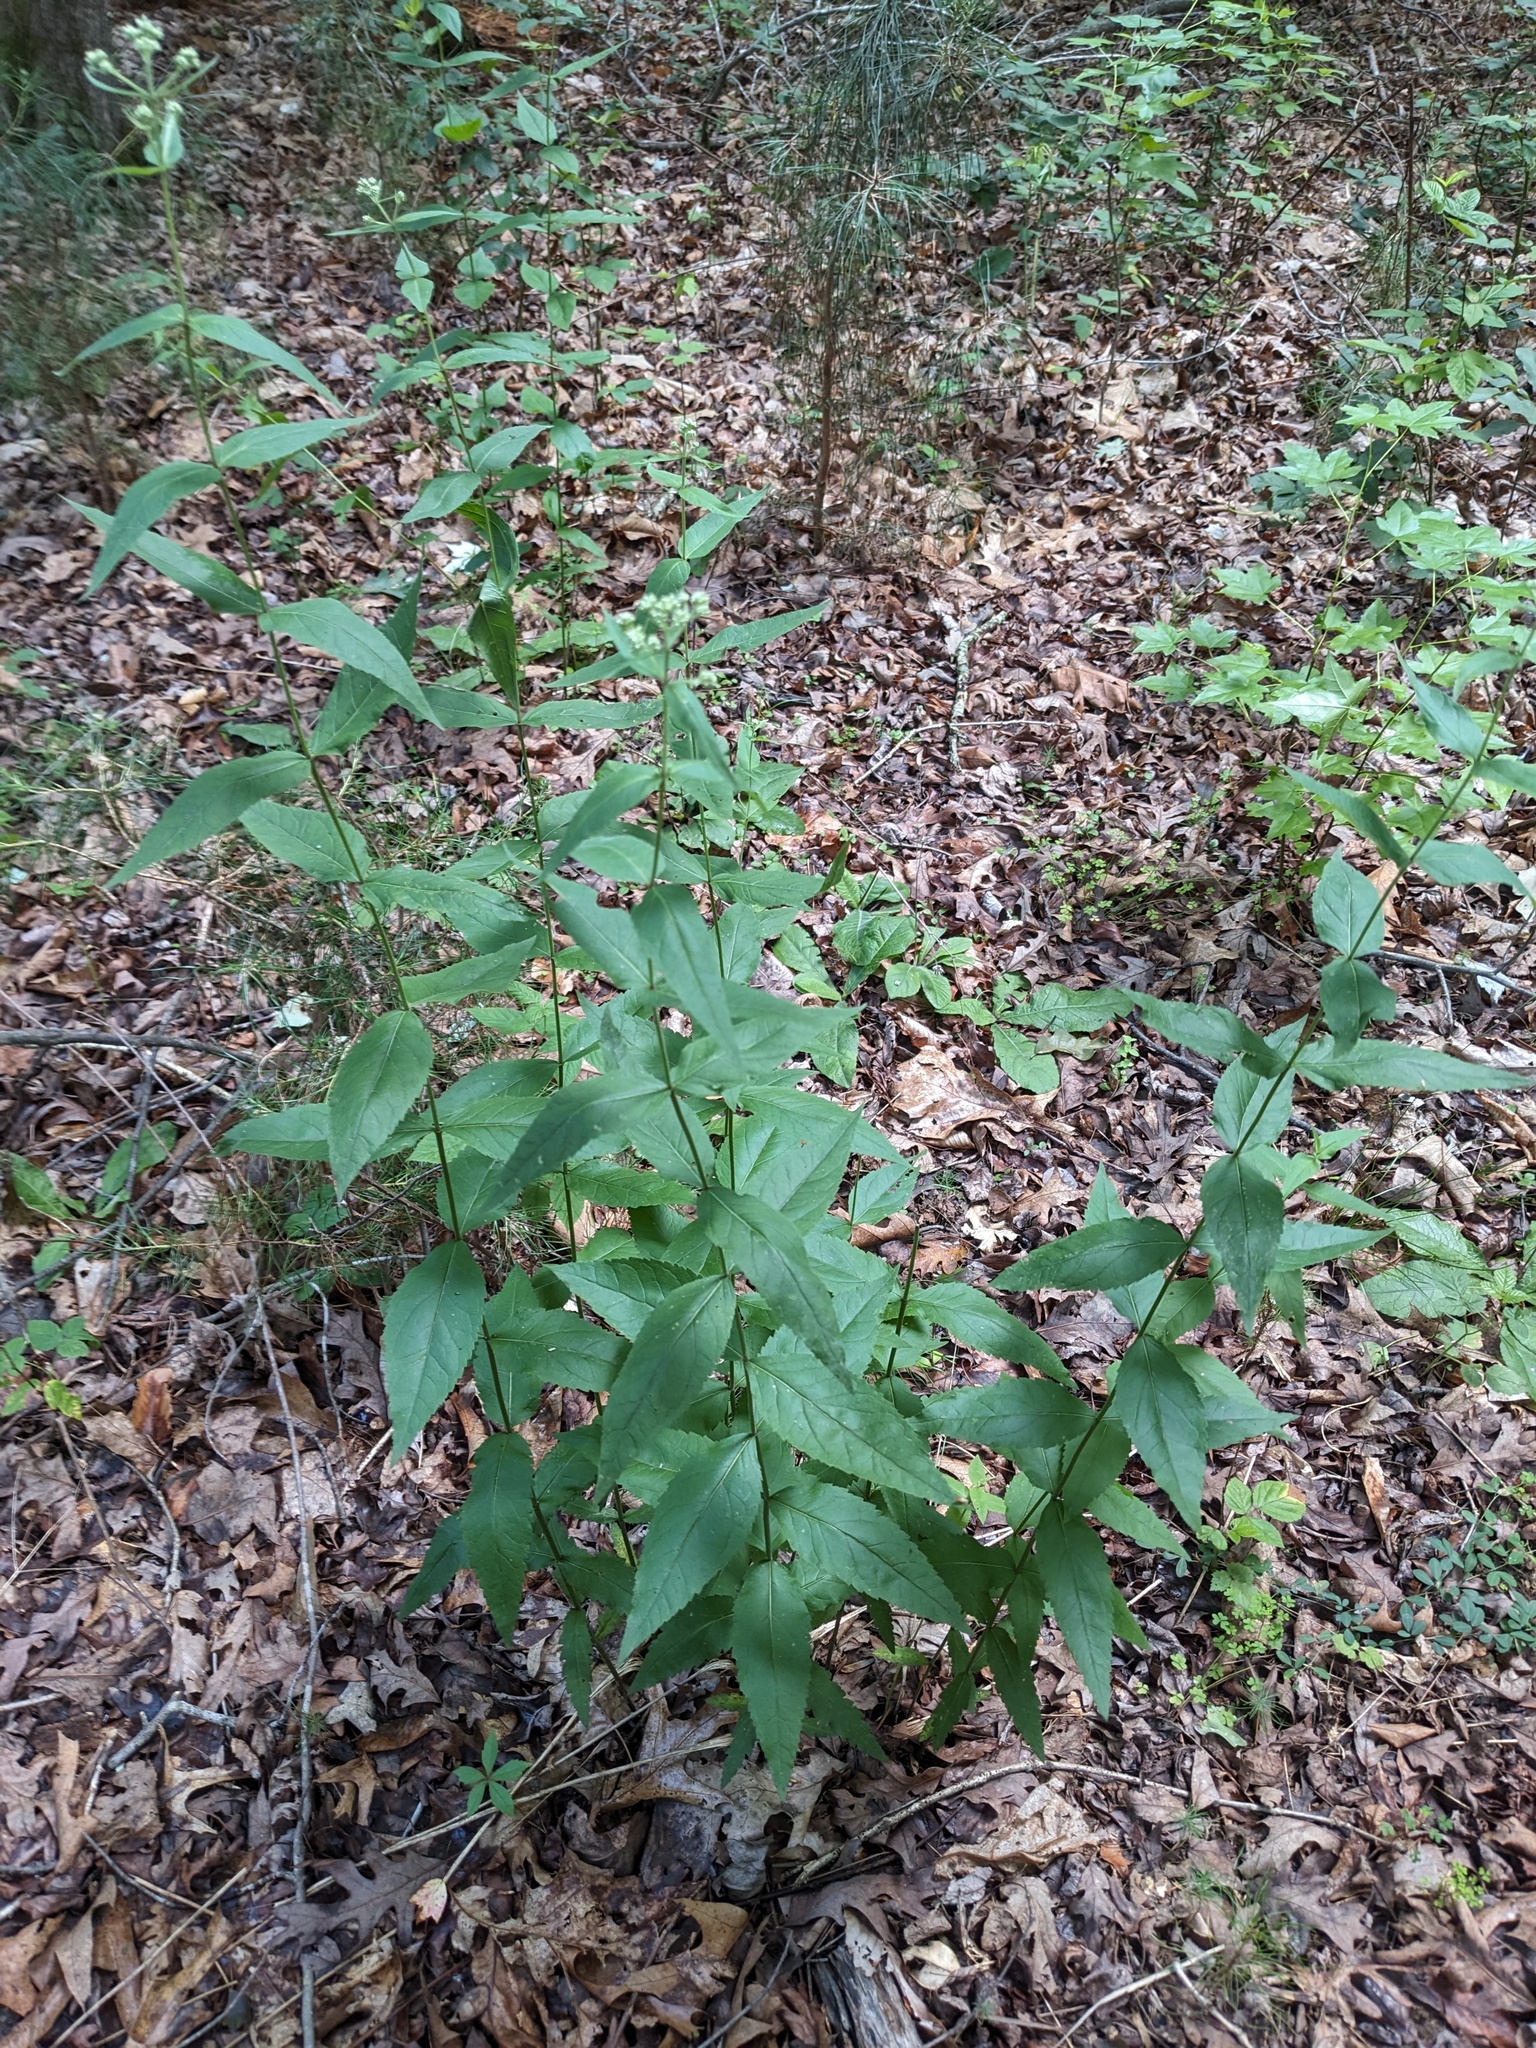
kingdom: Plantae
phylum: Tracheophyta
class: Magnoliopsida
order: Asterales
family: Asteraceae
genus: Eupatorium
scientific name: Eupatorium godfreyanum
